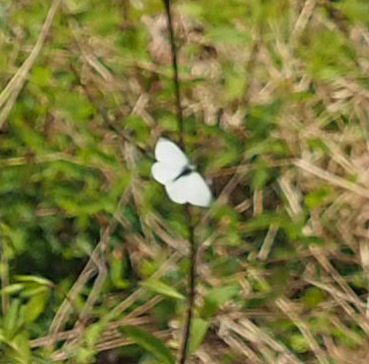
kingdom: Animalia
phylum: Arthropoda
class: Insecta
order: Lepidoptera
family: Pieridae
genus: Pieris
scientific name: Pieris rapae
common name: Small white
